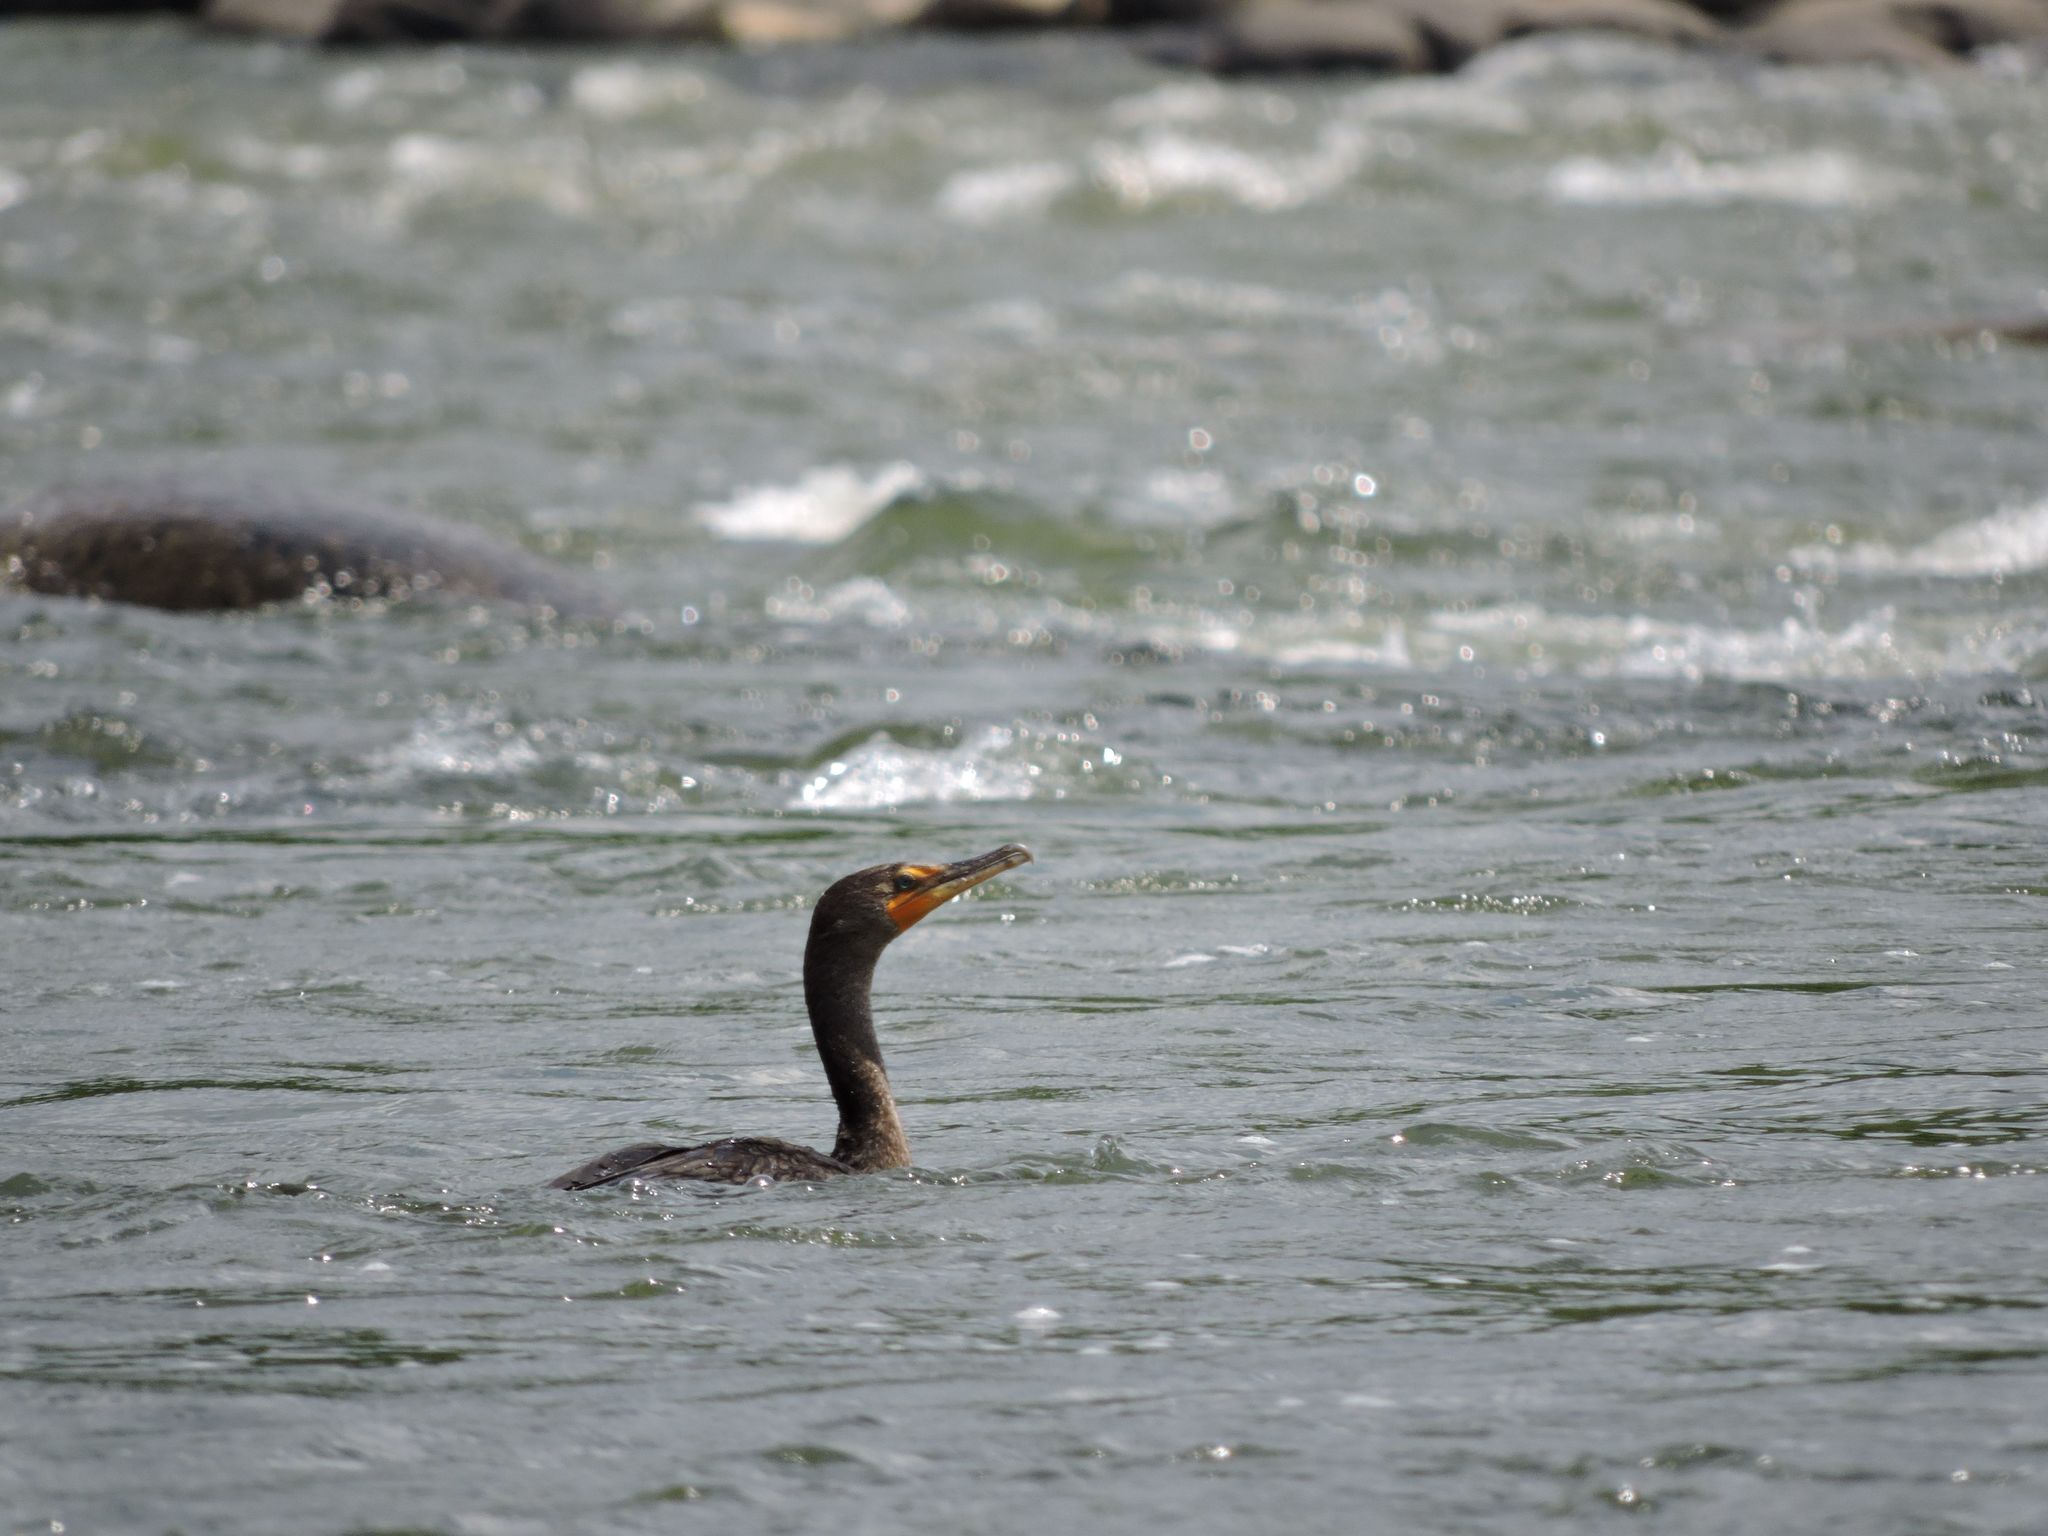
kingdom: Animalia
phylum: Chordata
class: Aves
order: Suliformes
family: Phalacrocoracidae
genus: Phalacrocorax
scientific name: Phalacrocorax auritus
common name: Double-crested cormorant
